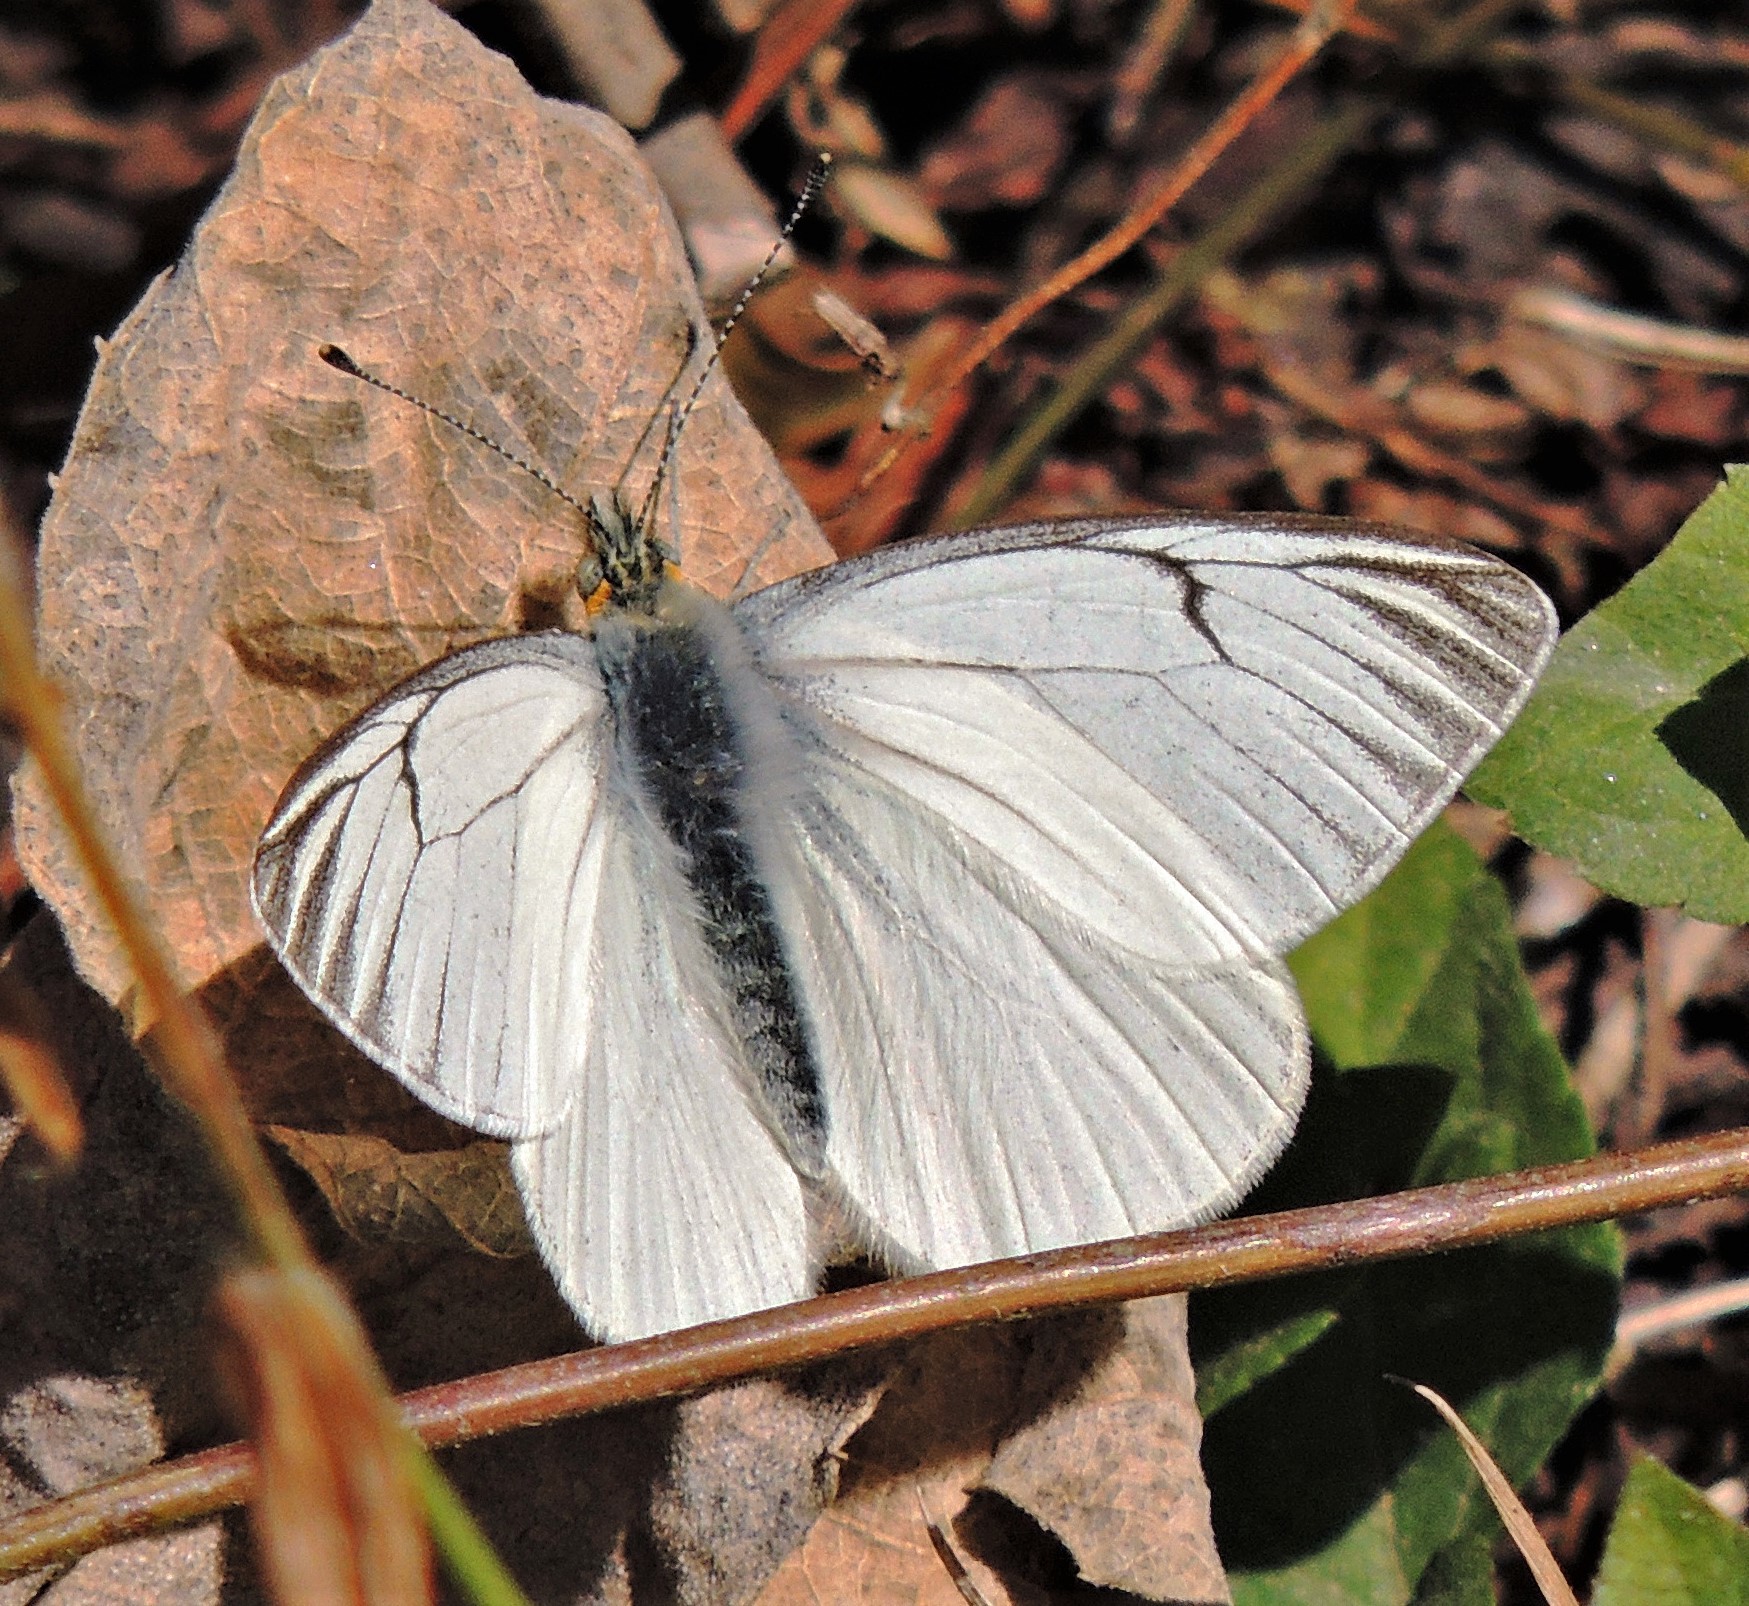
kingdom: Animalia
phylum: Arthropoda
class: Insecta
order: Lepidoptera
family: Pieridae
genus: Tatochila
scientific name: Tatochila orthodice
